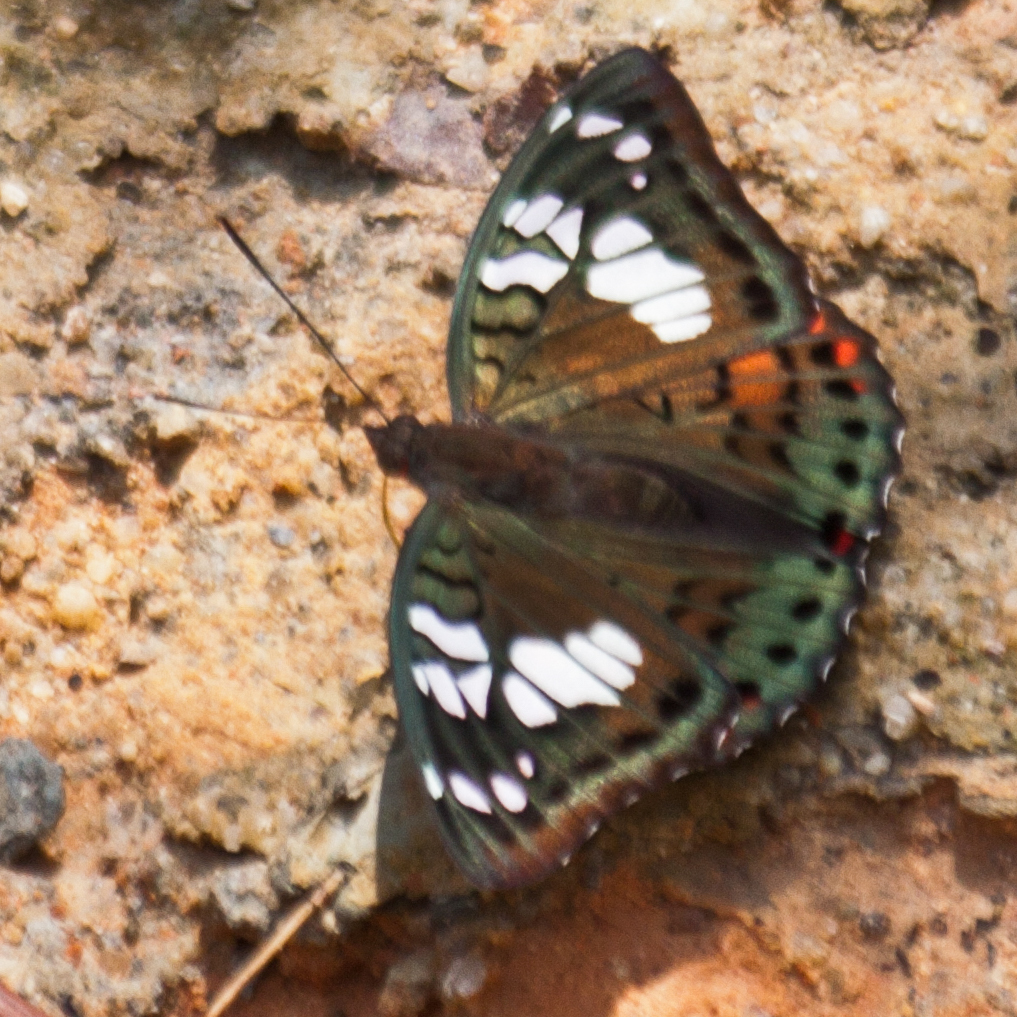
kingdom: Animalia
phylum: Arthropoda
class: Insecta
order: Lepidoptera
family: Nymphalidae
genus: Euthalia
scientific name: Euthalia lubentina
